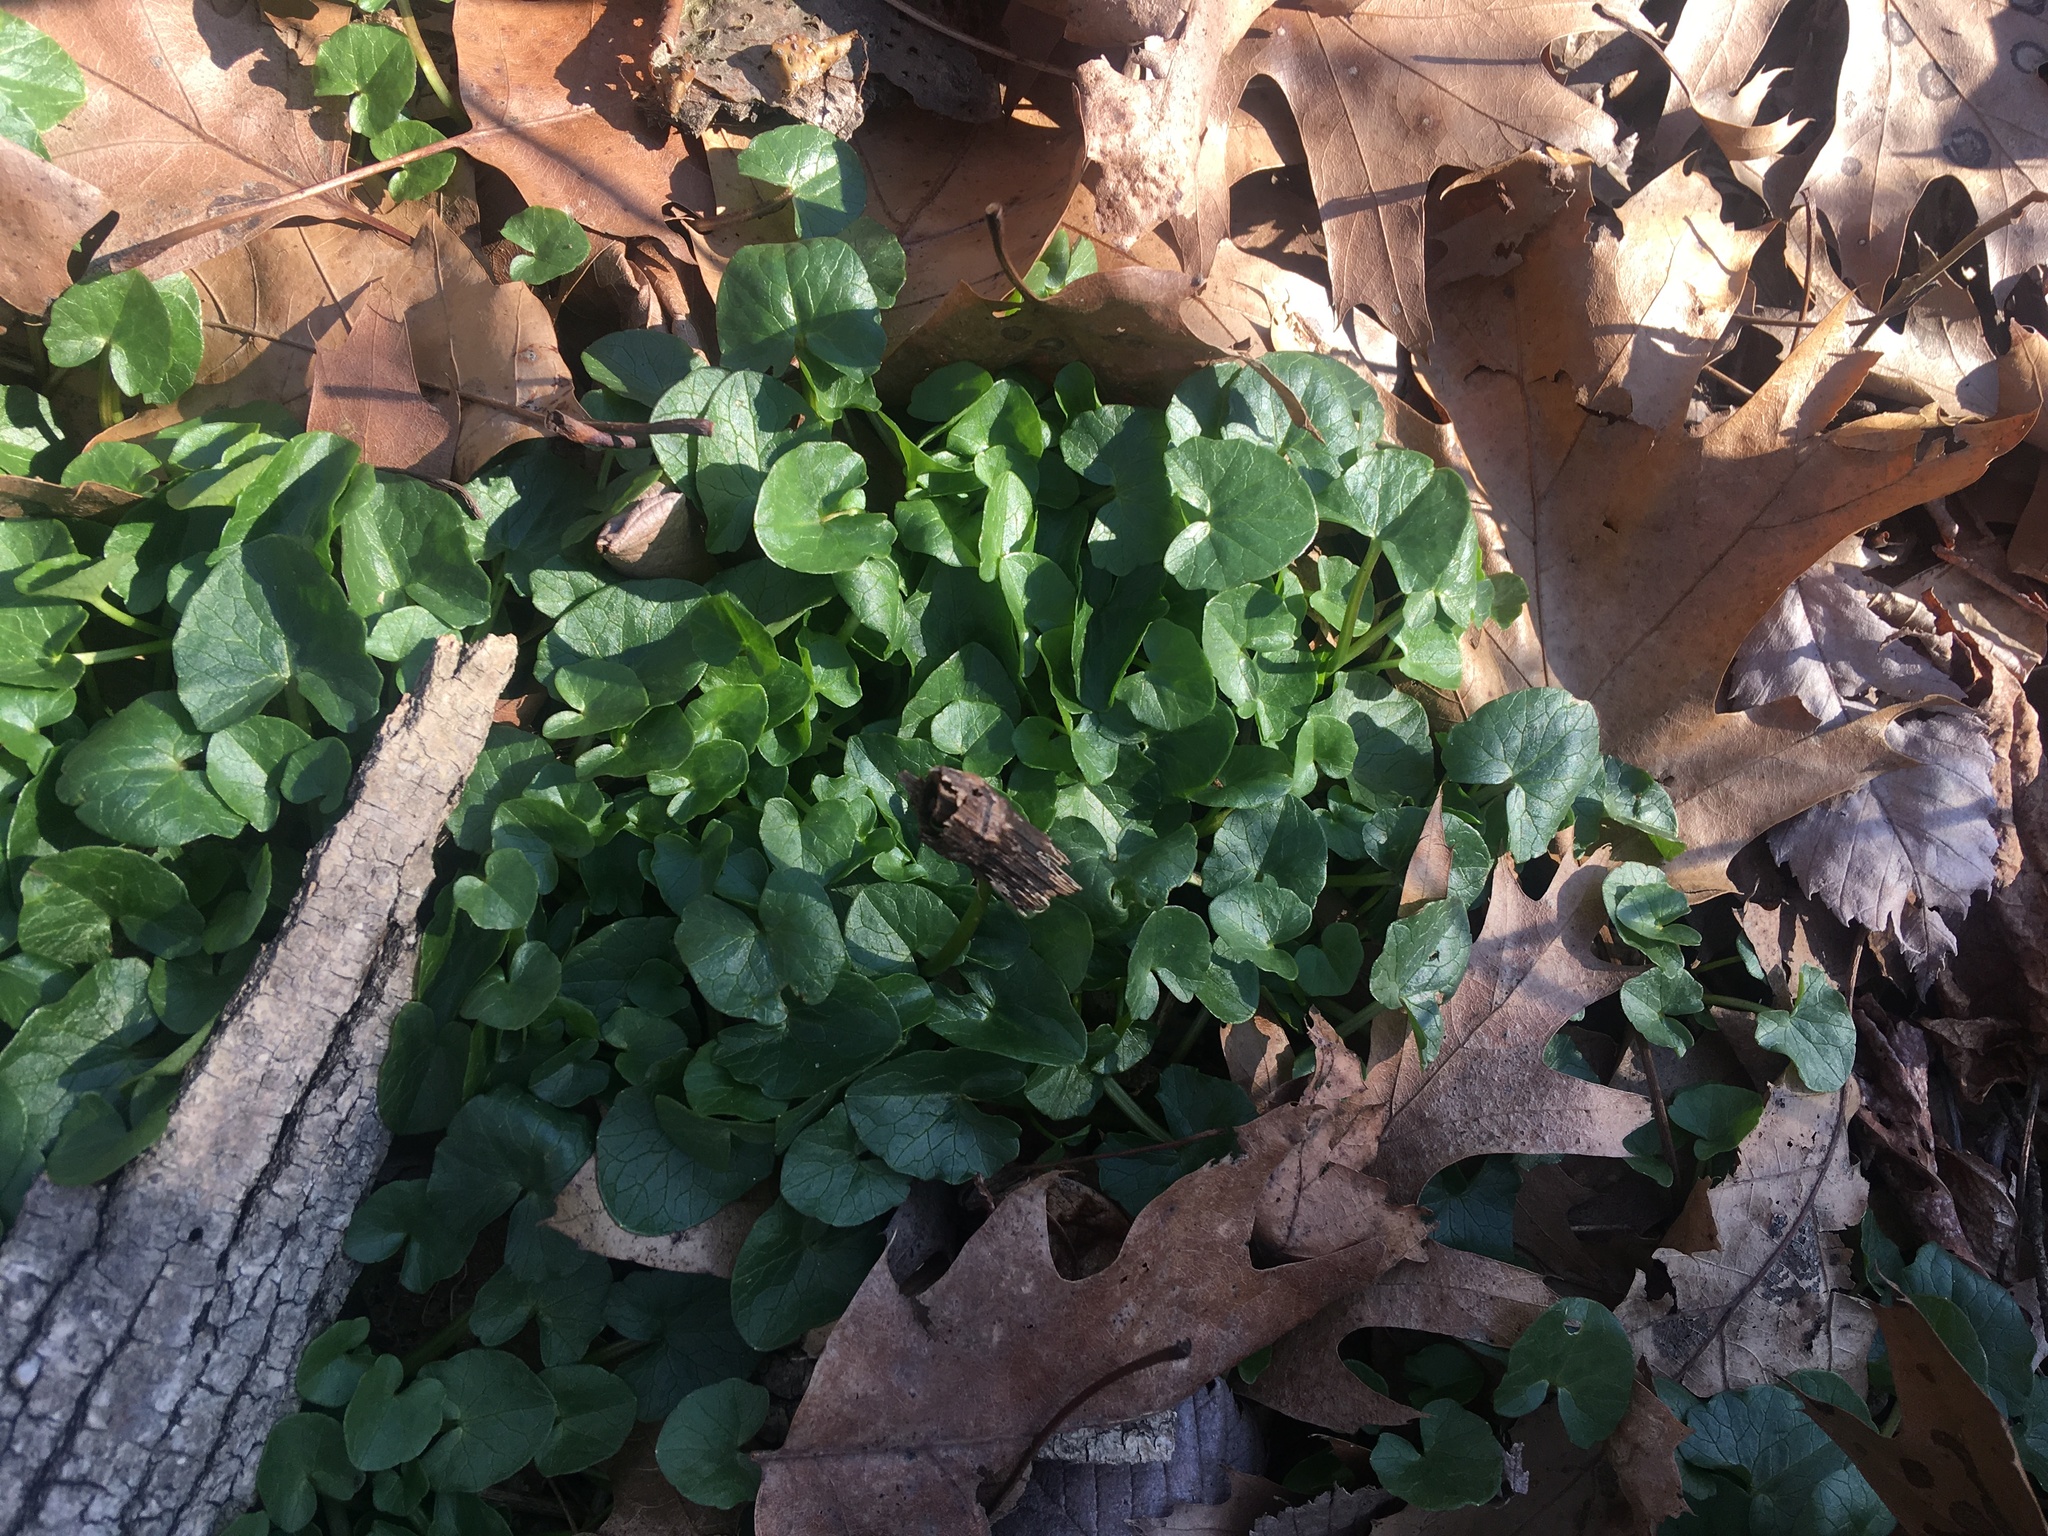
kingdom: Plantae
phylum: Tracheophyta
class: Magnoliopsida
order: Ranunculales
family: Ranunculaceae
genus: Ficaria
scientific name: Ficaria verna
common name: Lesser celandine
